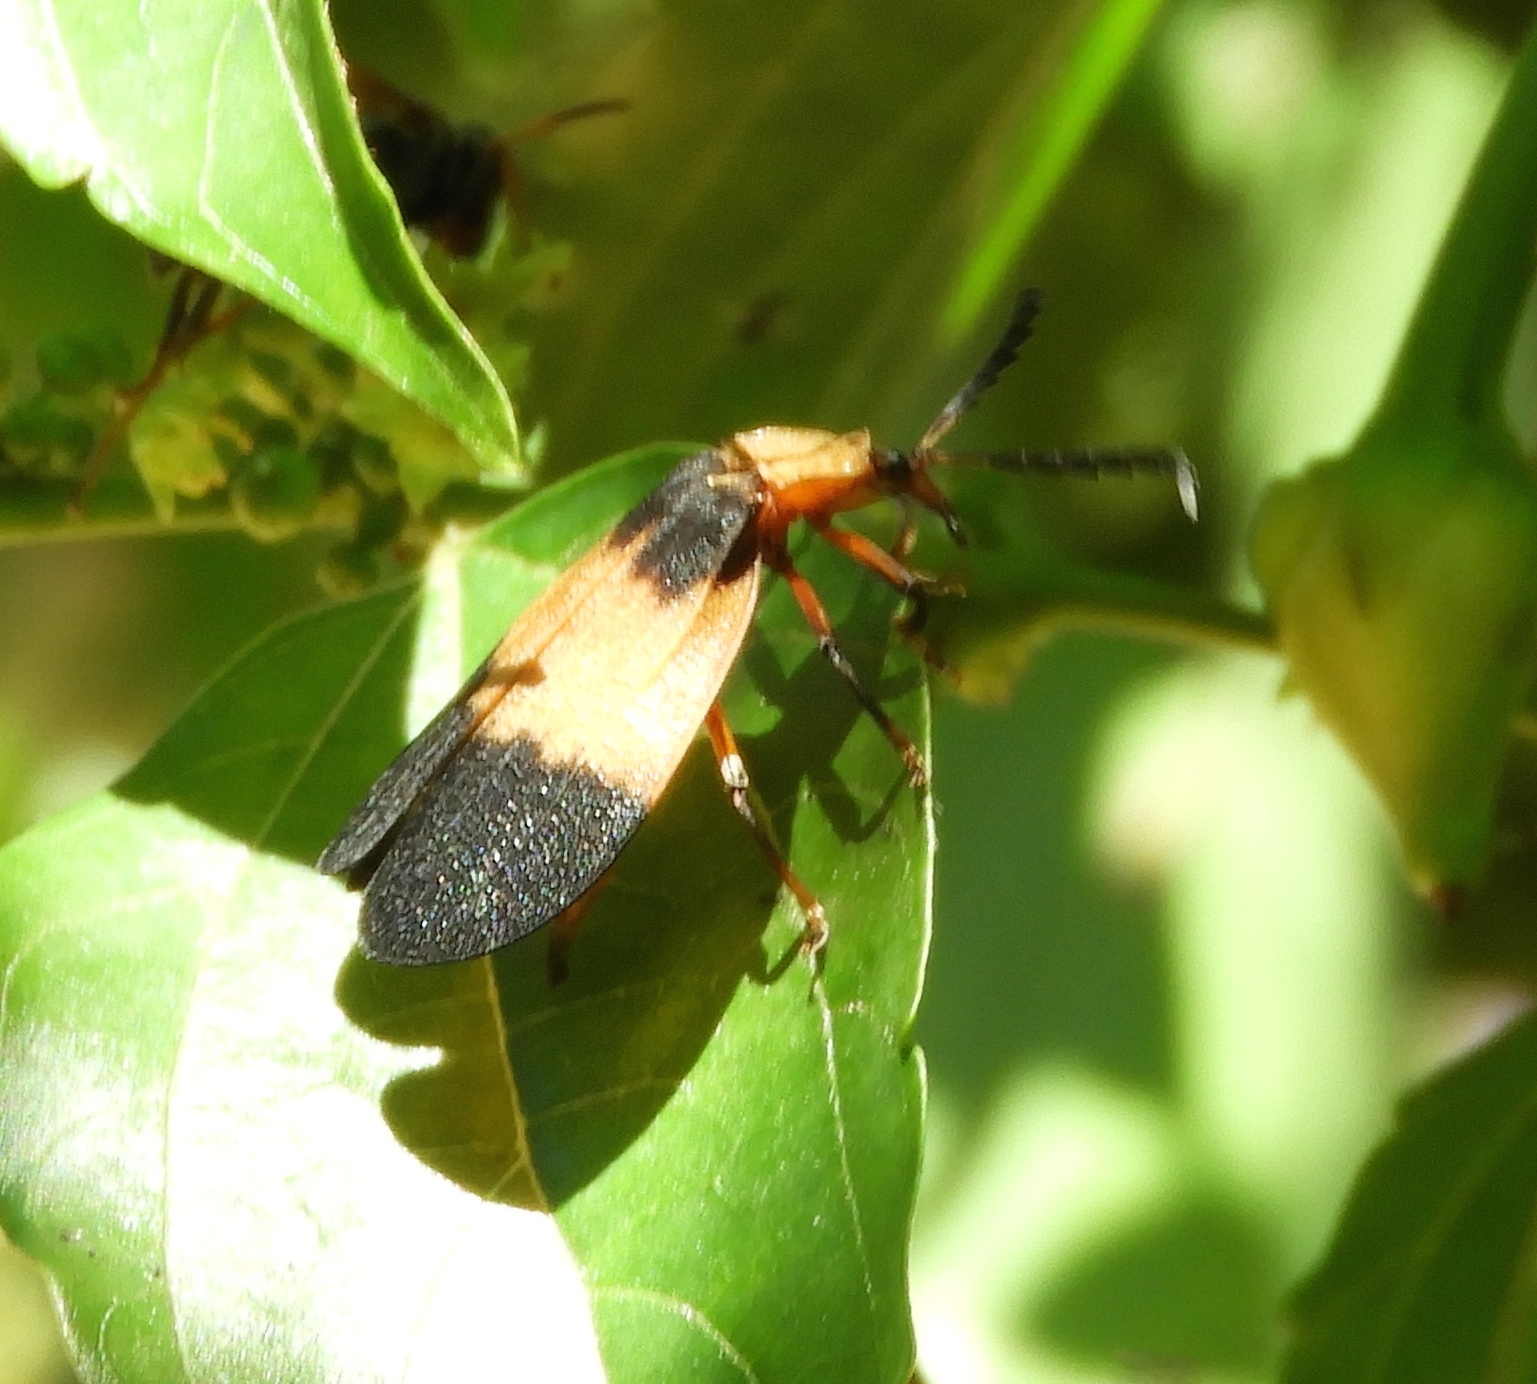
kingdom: Animalia
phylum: Arthropoda
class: Insecta
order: Coleoptera
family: Lycidae
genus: Lycus
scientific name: Lycus
